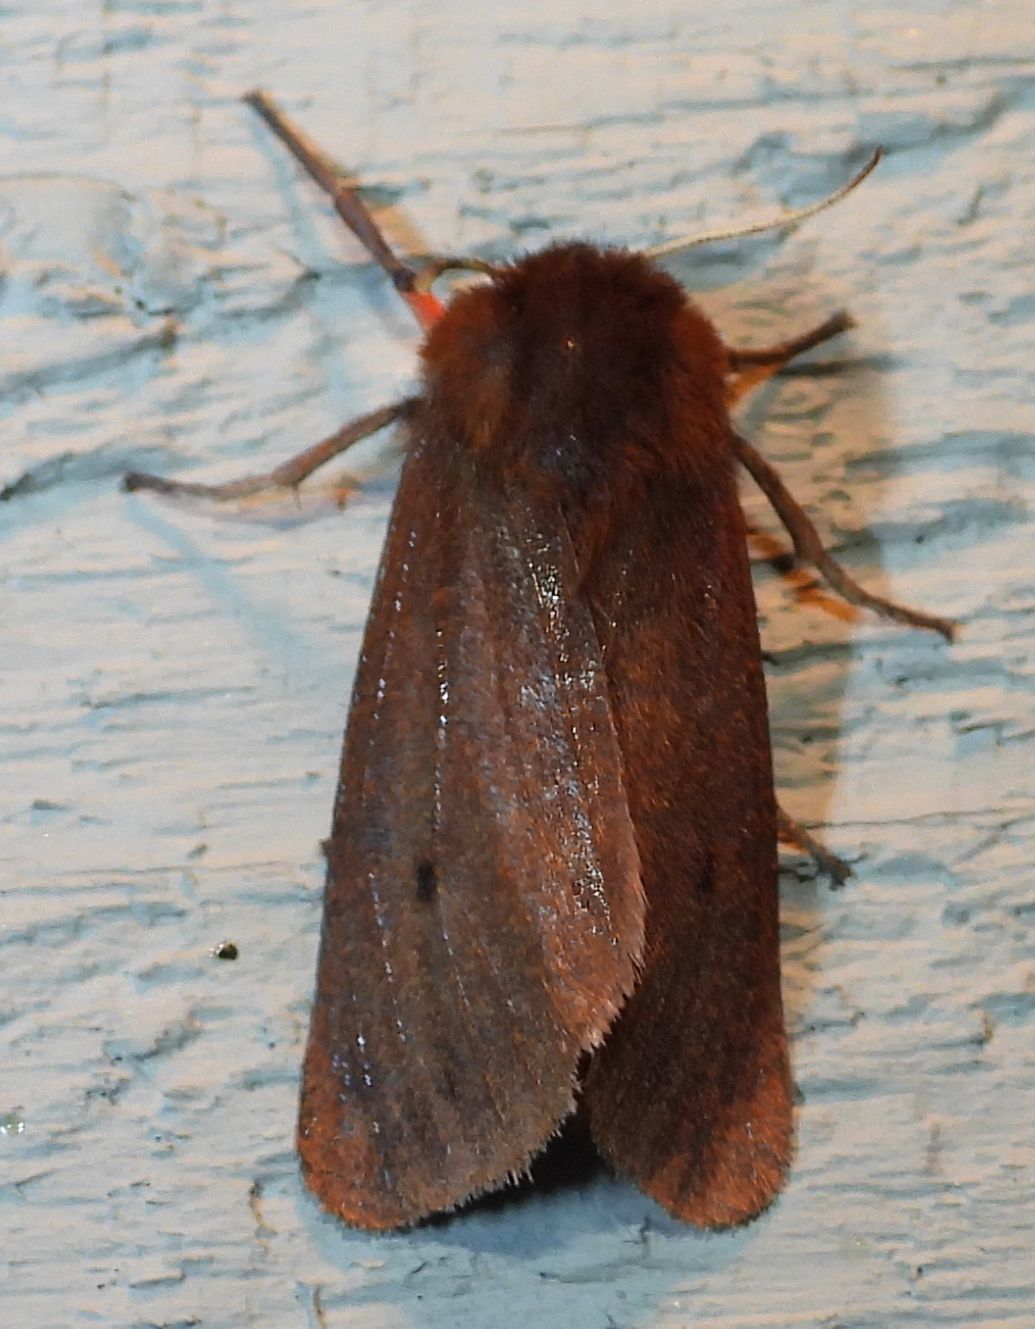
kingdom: Animalia
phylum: Arthropoda
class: Insecta
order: Lepidoptera
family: Erebidae
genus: Phragmatobia
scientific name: Phragmatobia fuliginosa
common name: Ruby tiger
